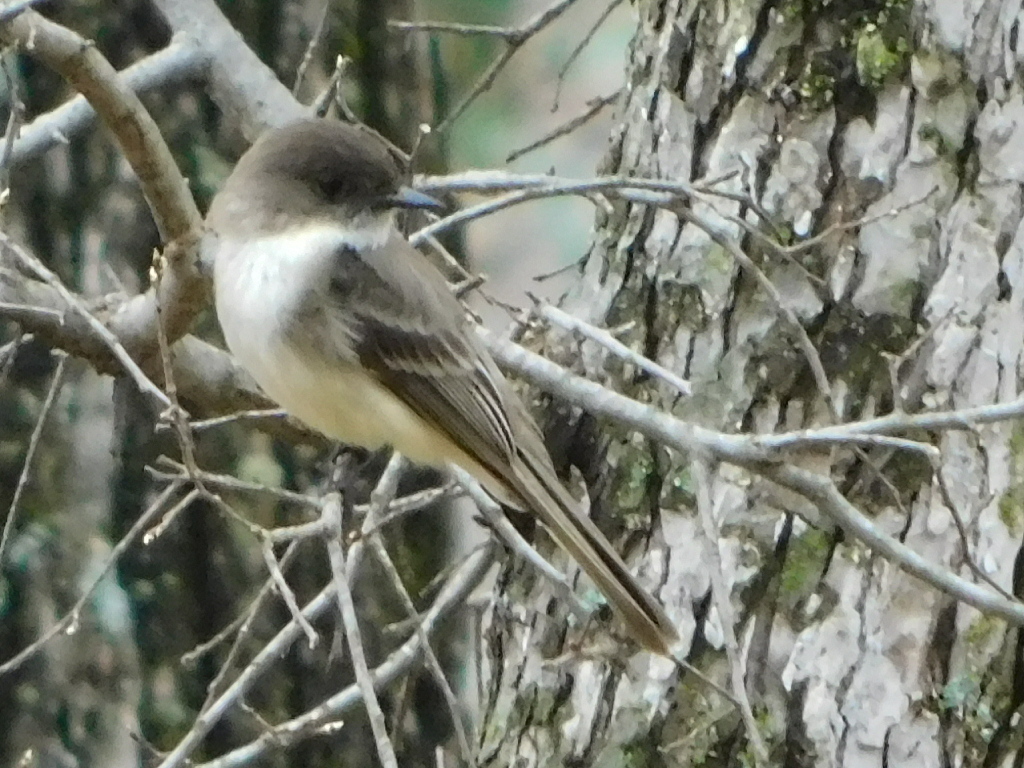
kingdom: Animalia
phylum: Chordata
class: Aves
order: Passeriformes
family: Tyrannidae
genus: Sayornis
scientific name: Sayornis phoebe
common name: Eastern phoebe
